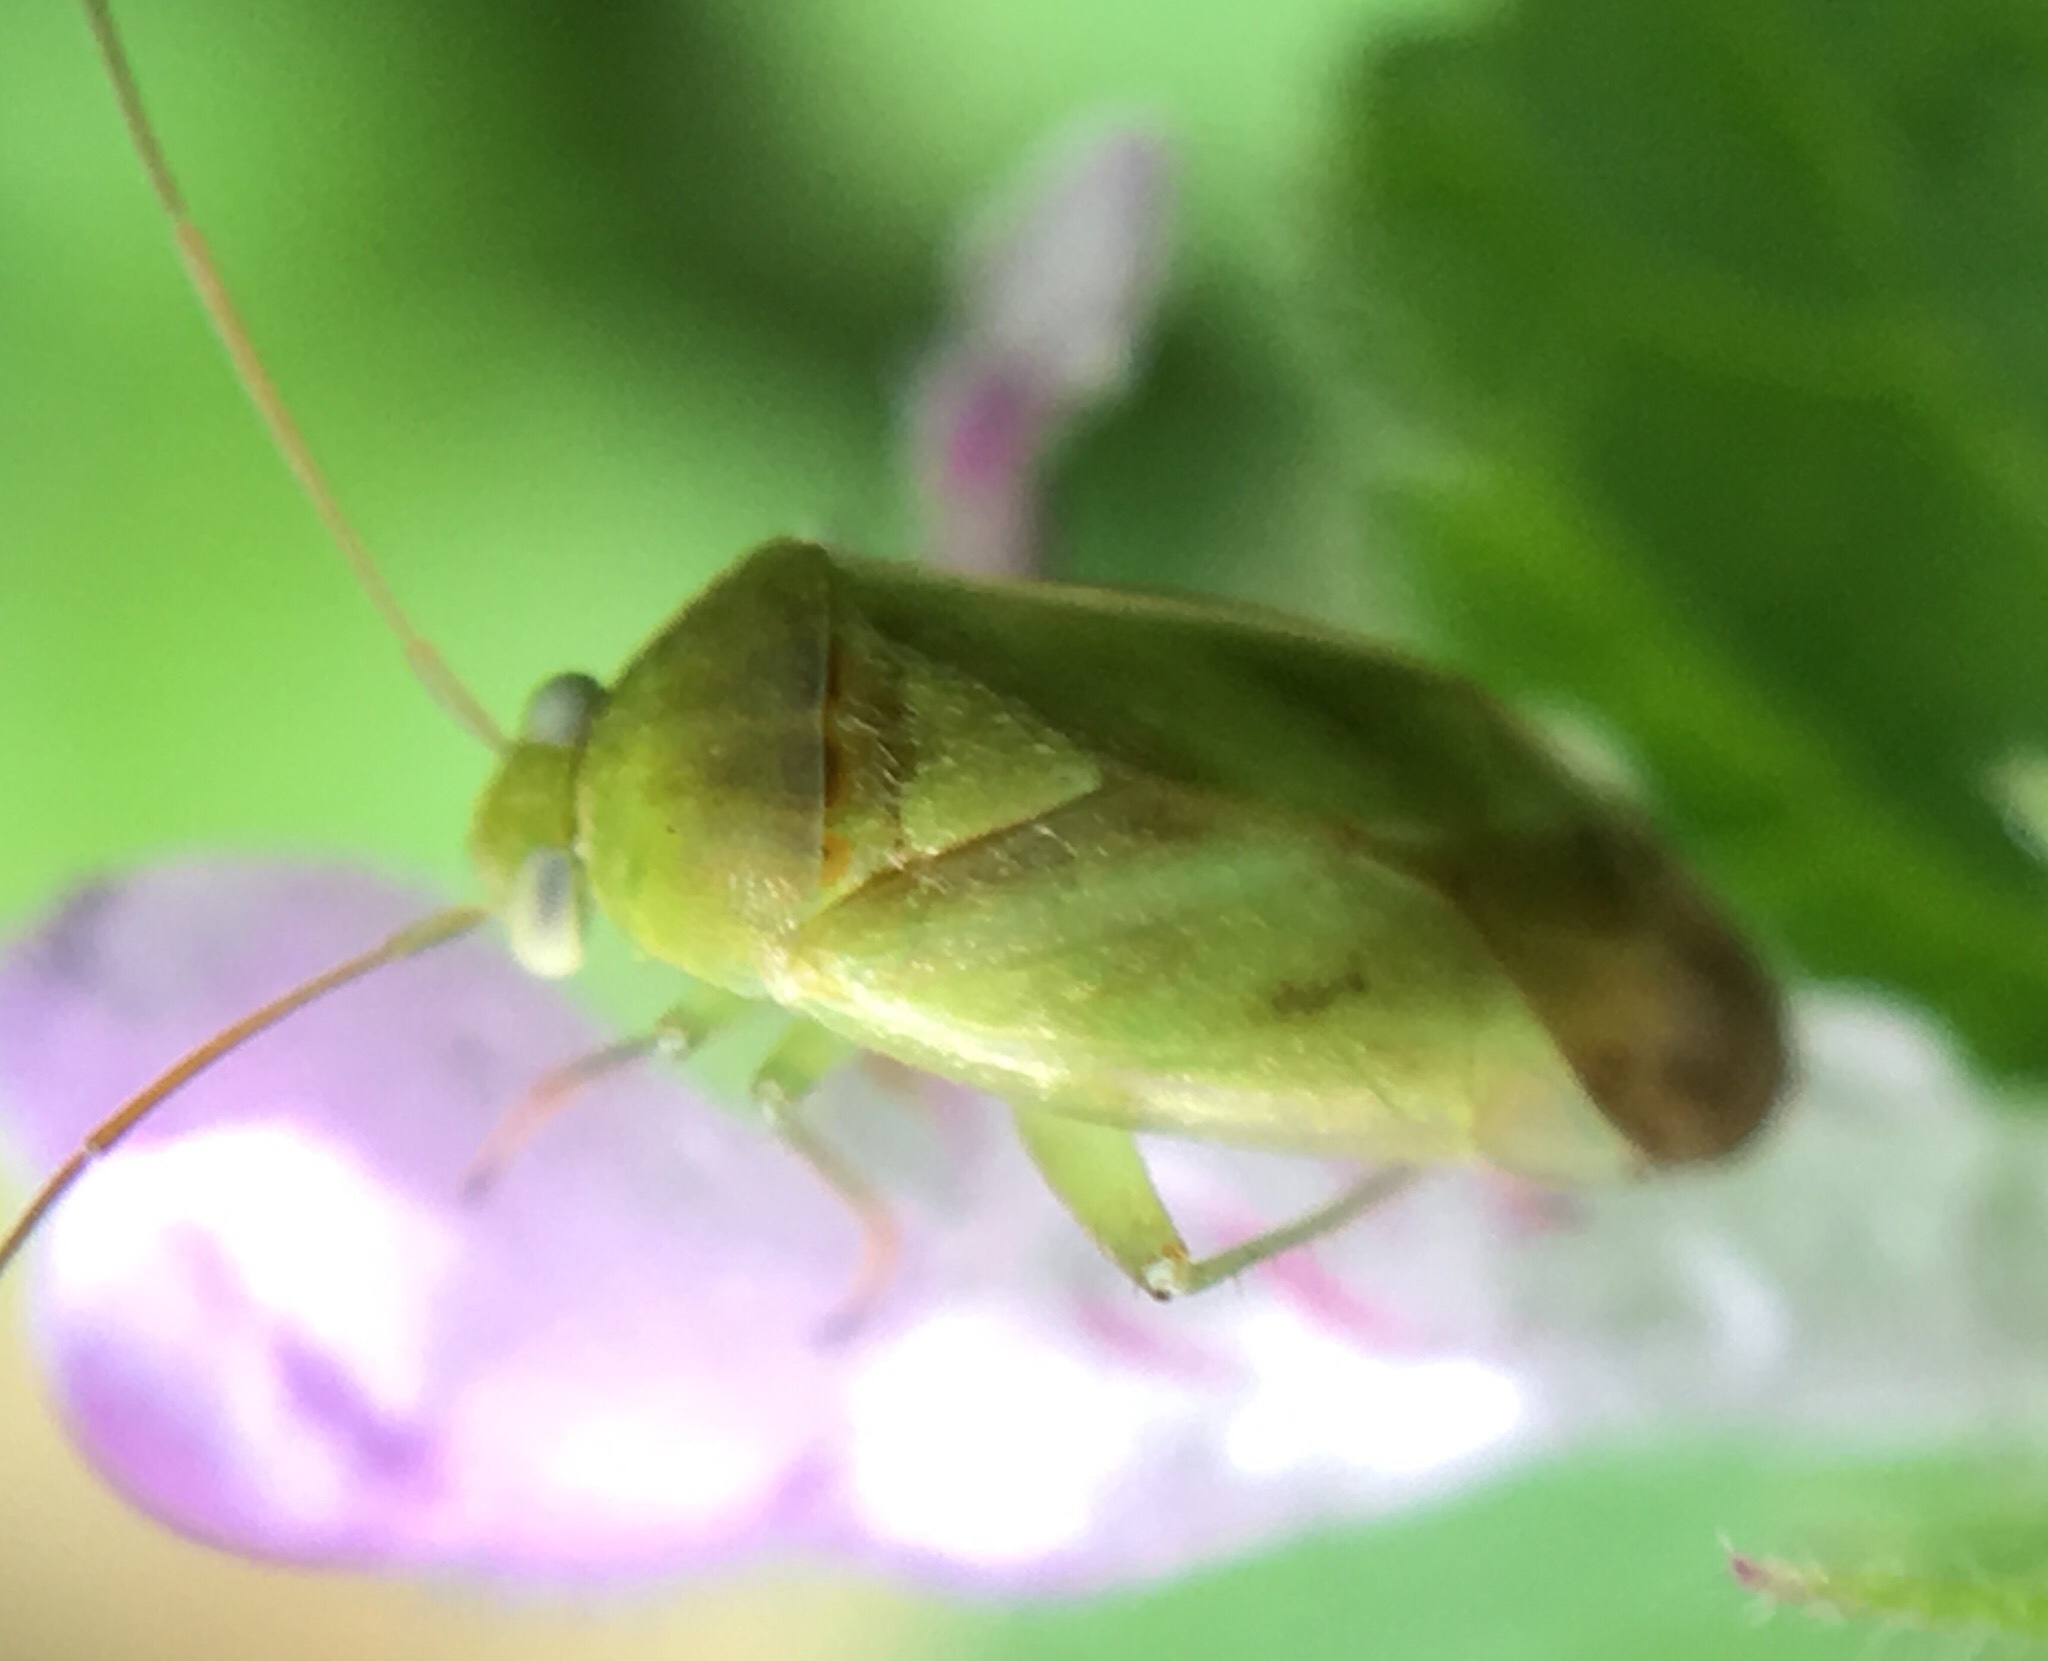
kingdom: Animalia
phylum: Arthropoda
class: Insecta
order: Hemiptera
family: Miridae
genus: Taylorilygus
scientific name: Taylorilygus apicalis
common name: Plant bug
